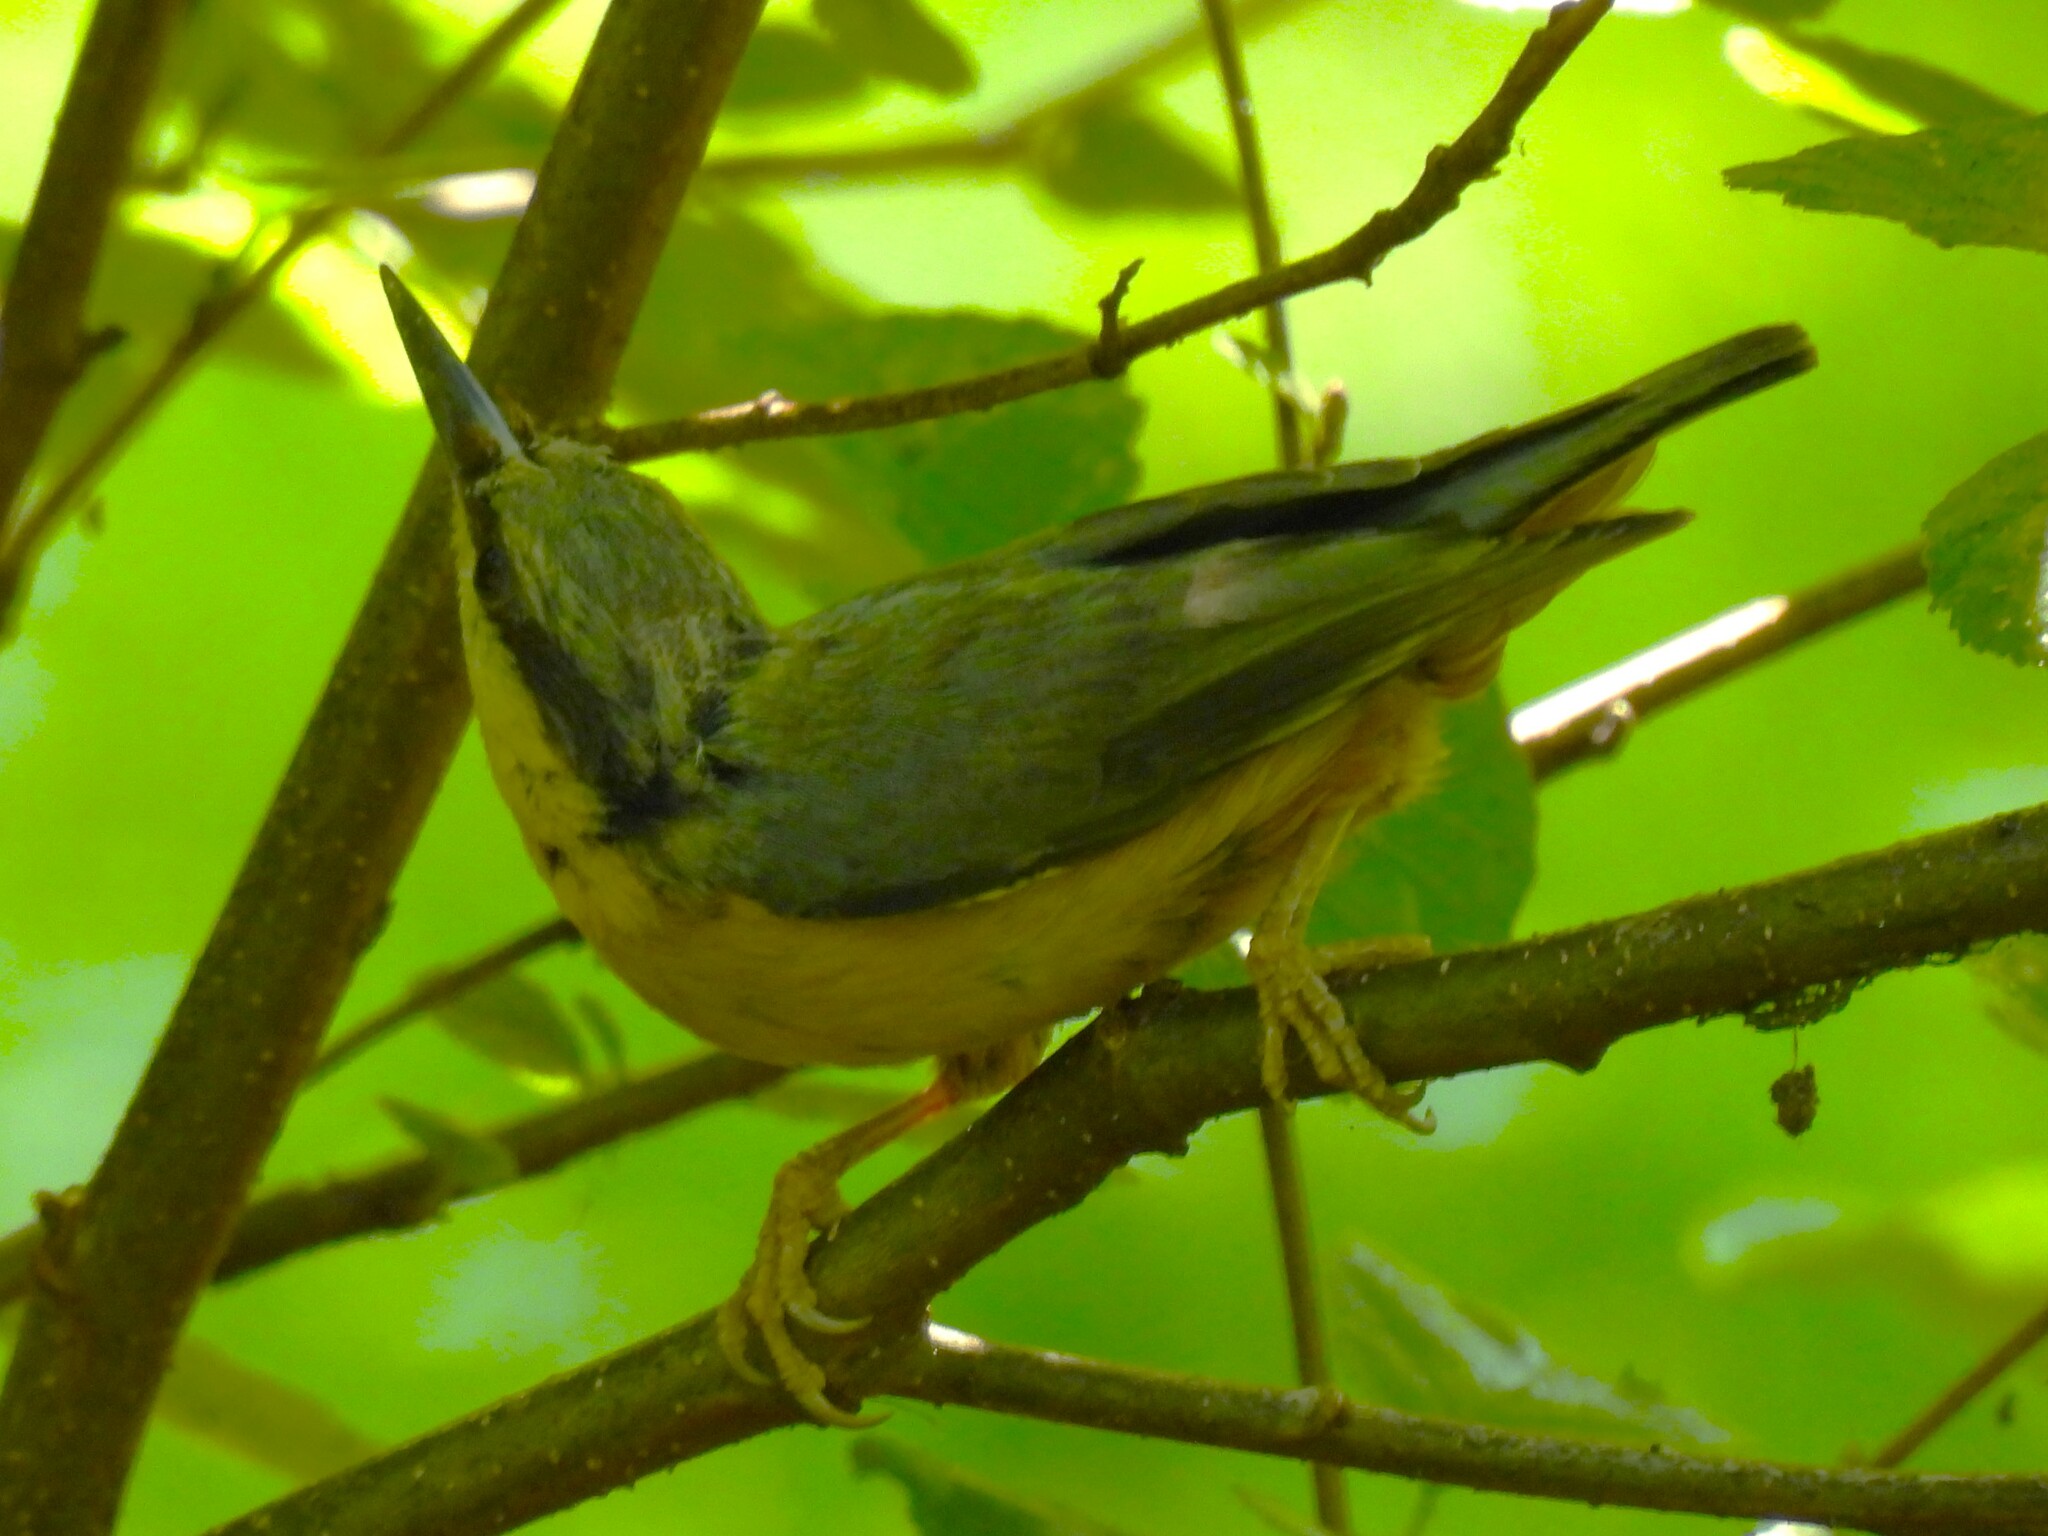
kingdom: Animalia
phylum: Chordata
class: Aves
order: Passeriformes
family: Sittidae
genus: Sitta
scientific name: Sitta europaea
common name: Eurasian nuthatch
